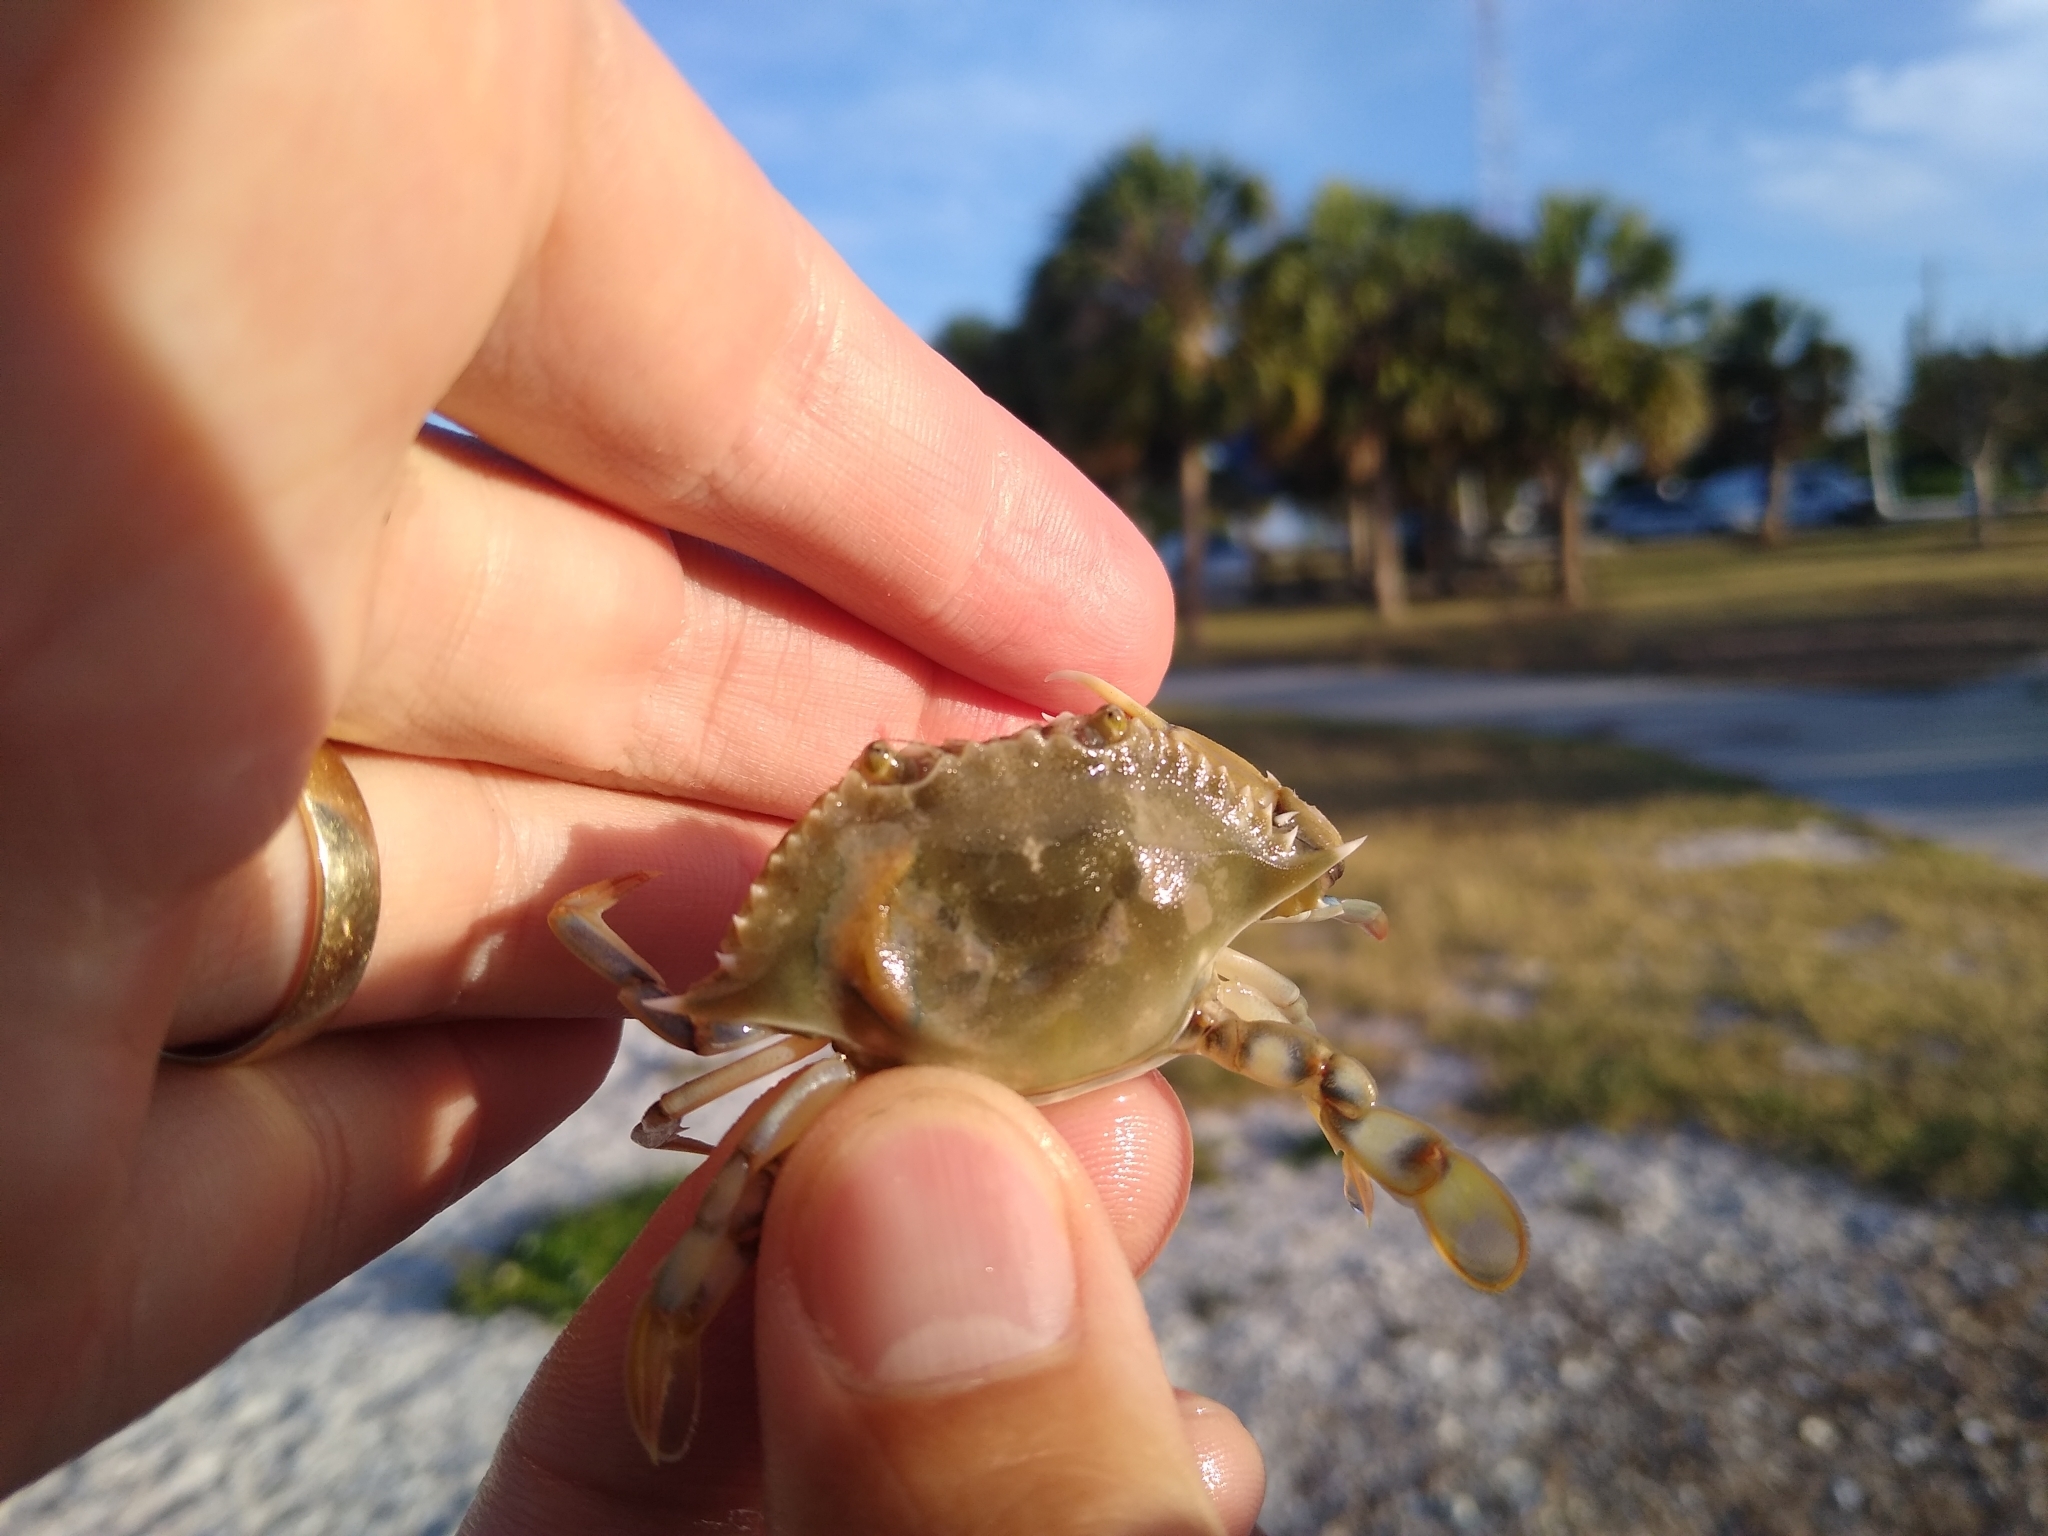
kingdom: Animalia
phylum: Arthropoda
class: Malacostraca
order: Decapoda
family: Portunidae
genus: Callinectes
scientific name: Callinectes ornatus
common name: Ornate crab
